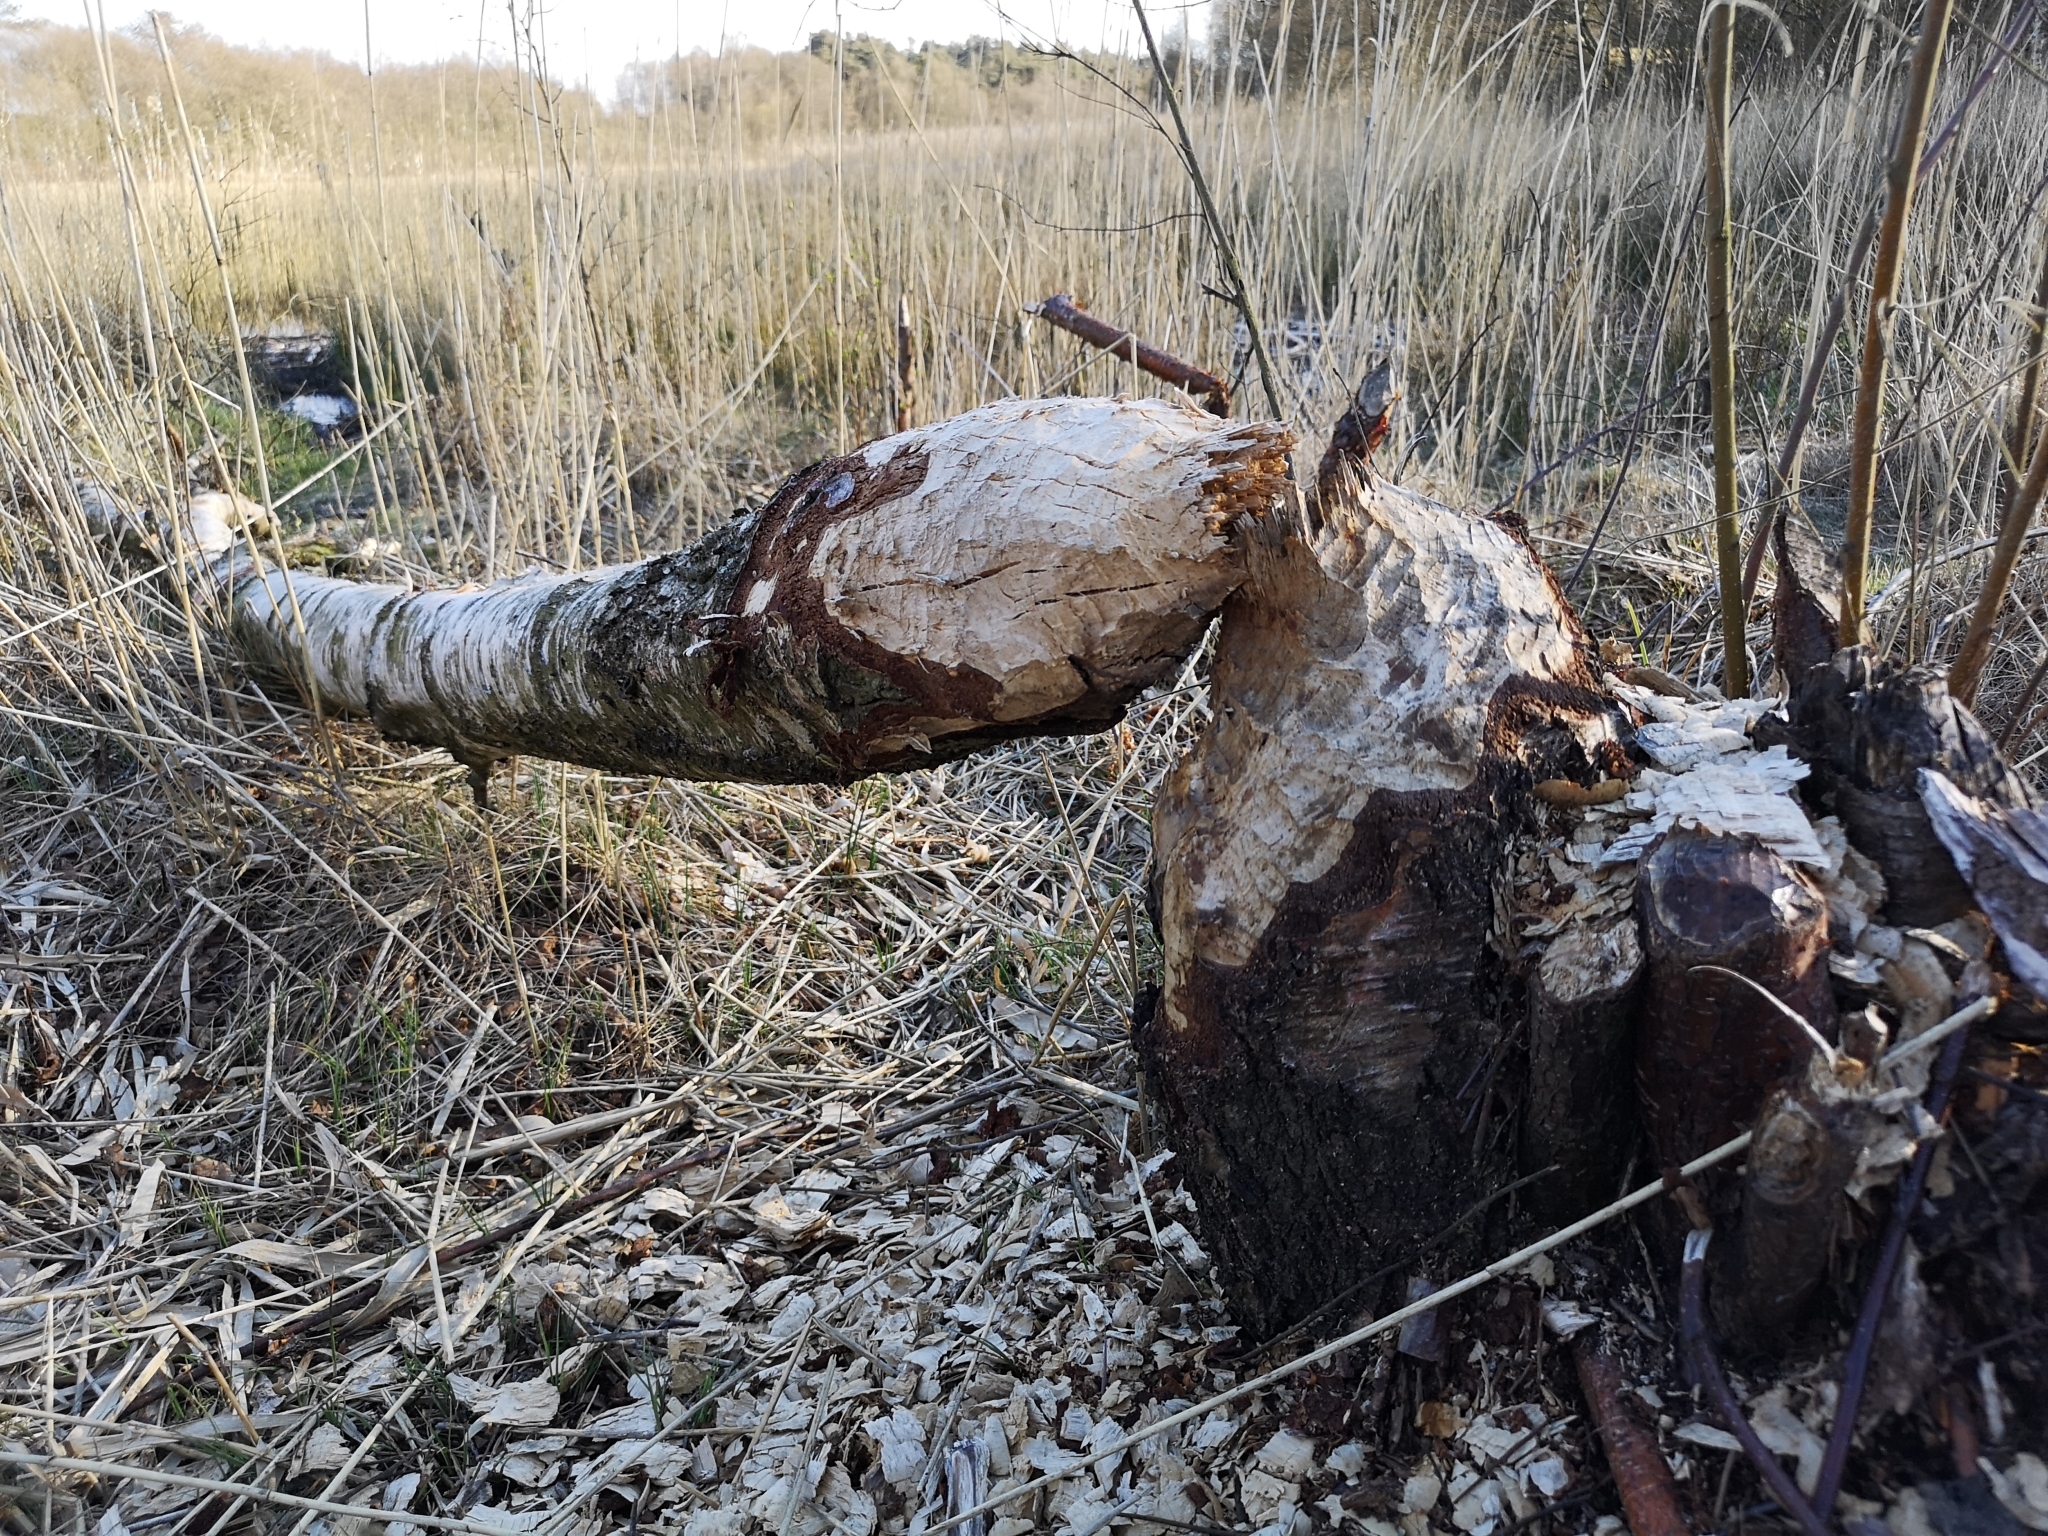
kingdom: Animalia
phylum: Chordata
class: Mammalia
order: Rodentia
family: Castoridae
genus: Castor
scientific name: Castor fiber
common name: Eurasian beaver
